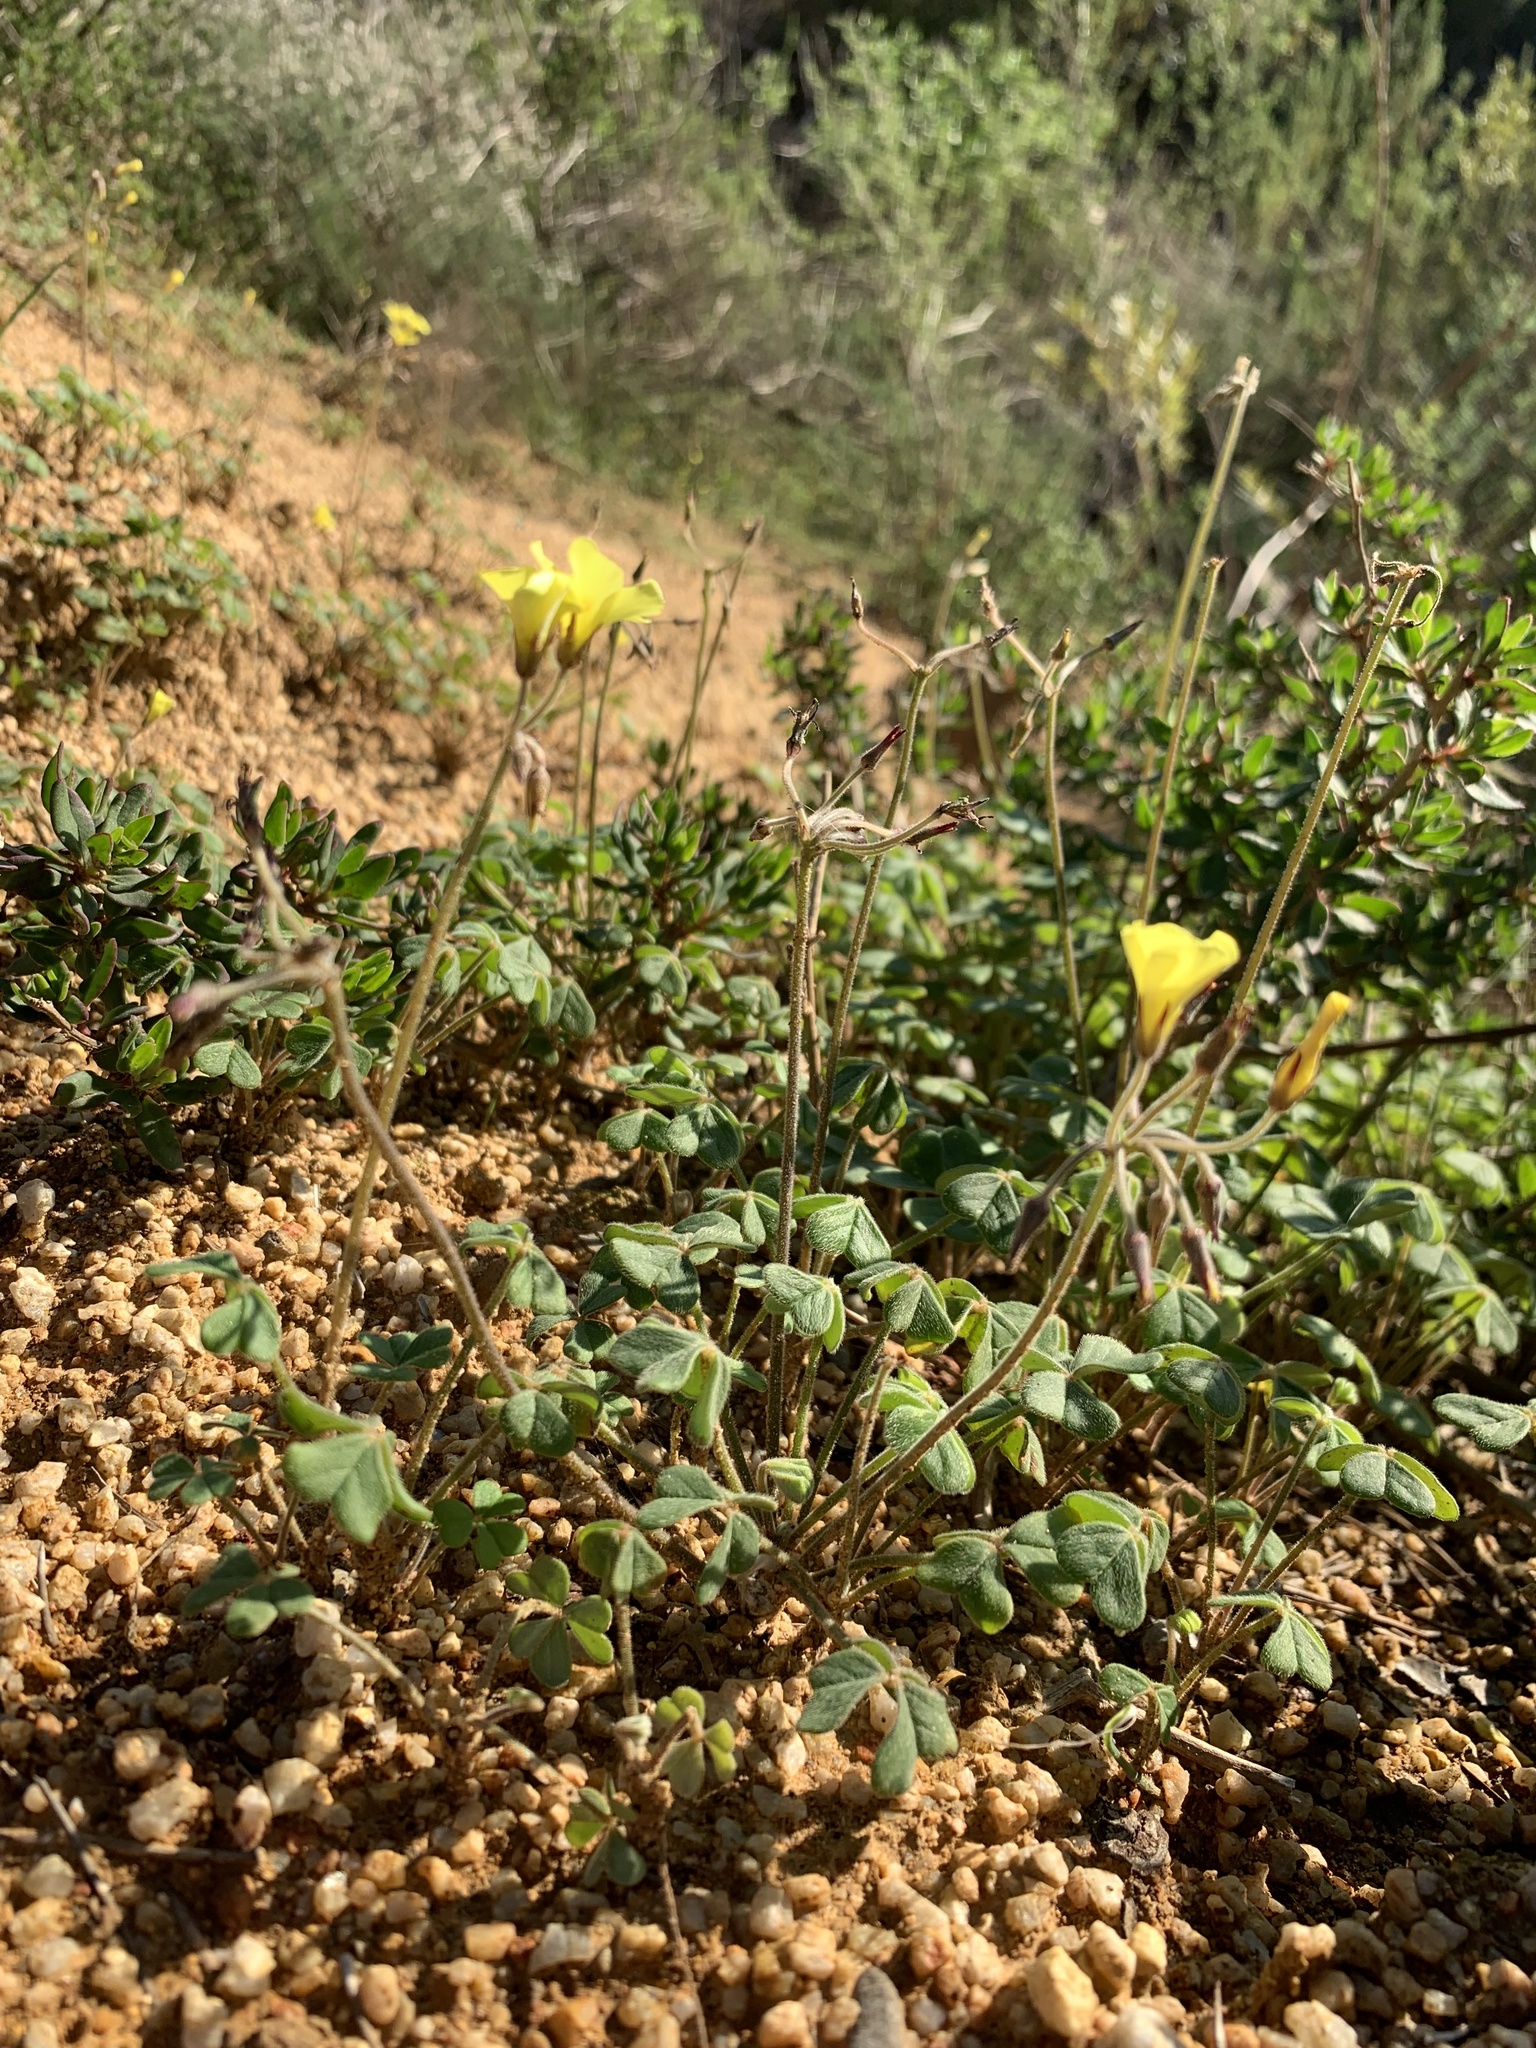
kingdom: Plantae
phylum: Tracheophyta
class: Magnoliopsida
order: Oxalidales
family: Oxalidaceae
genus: Oxalis
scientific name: Oxalis pes-caprae
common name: Bermuda-buttercup
